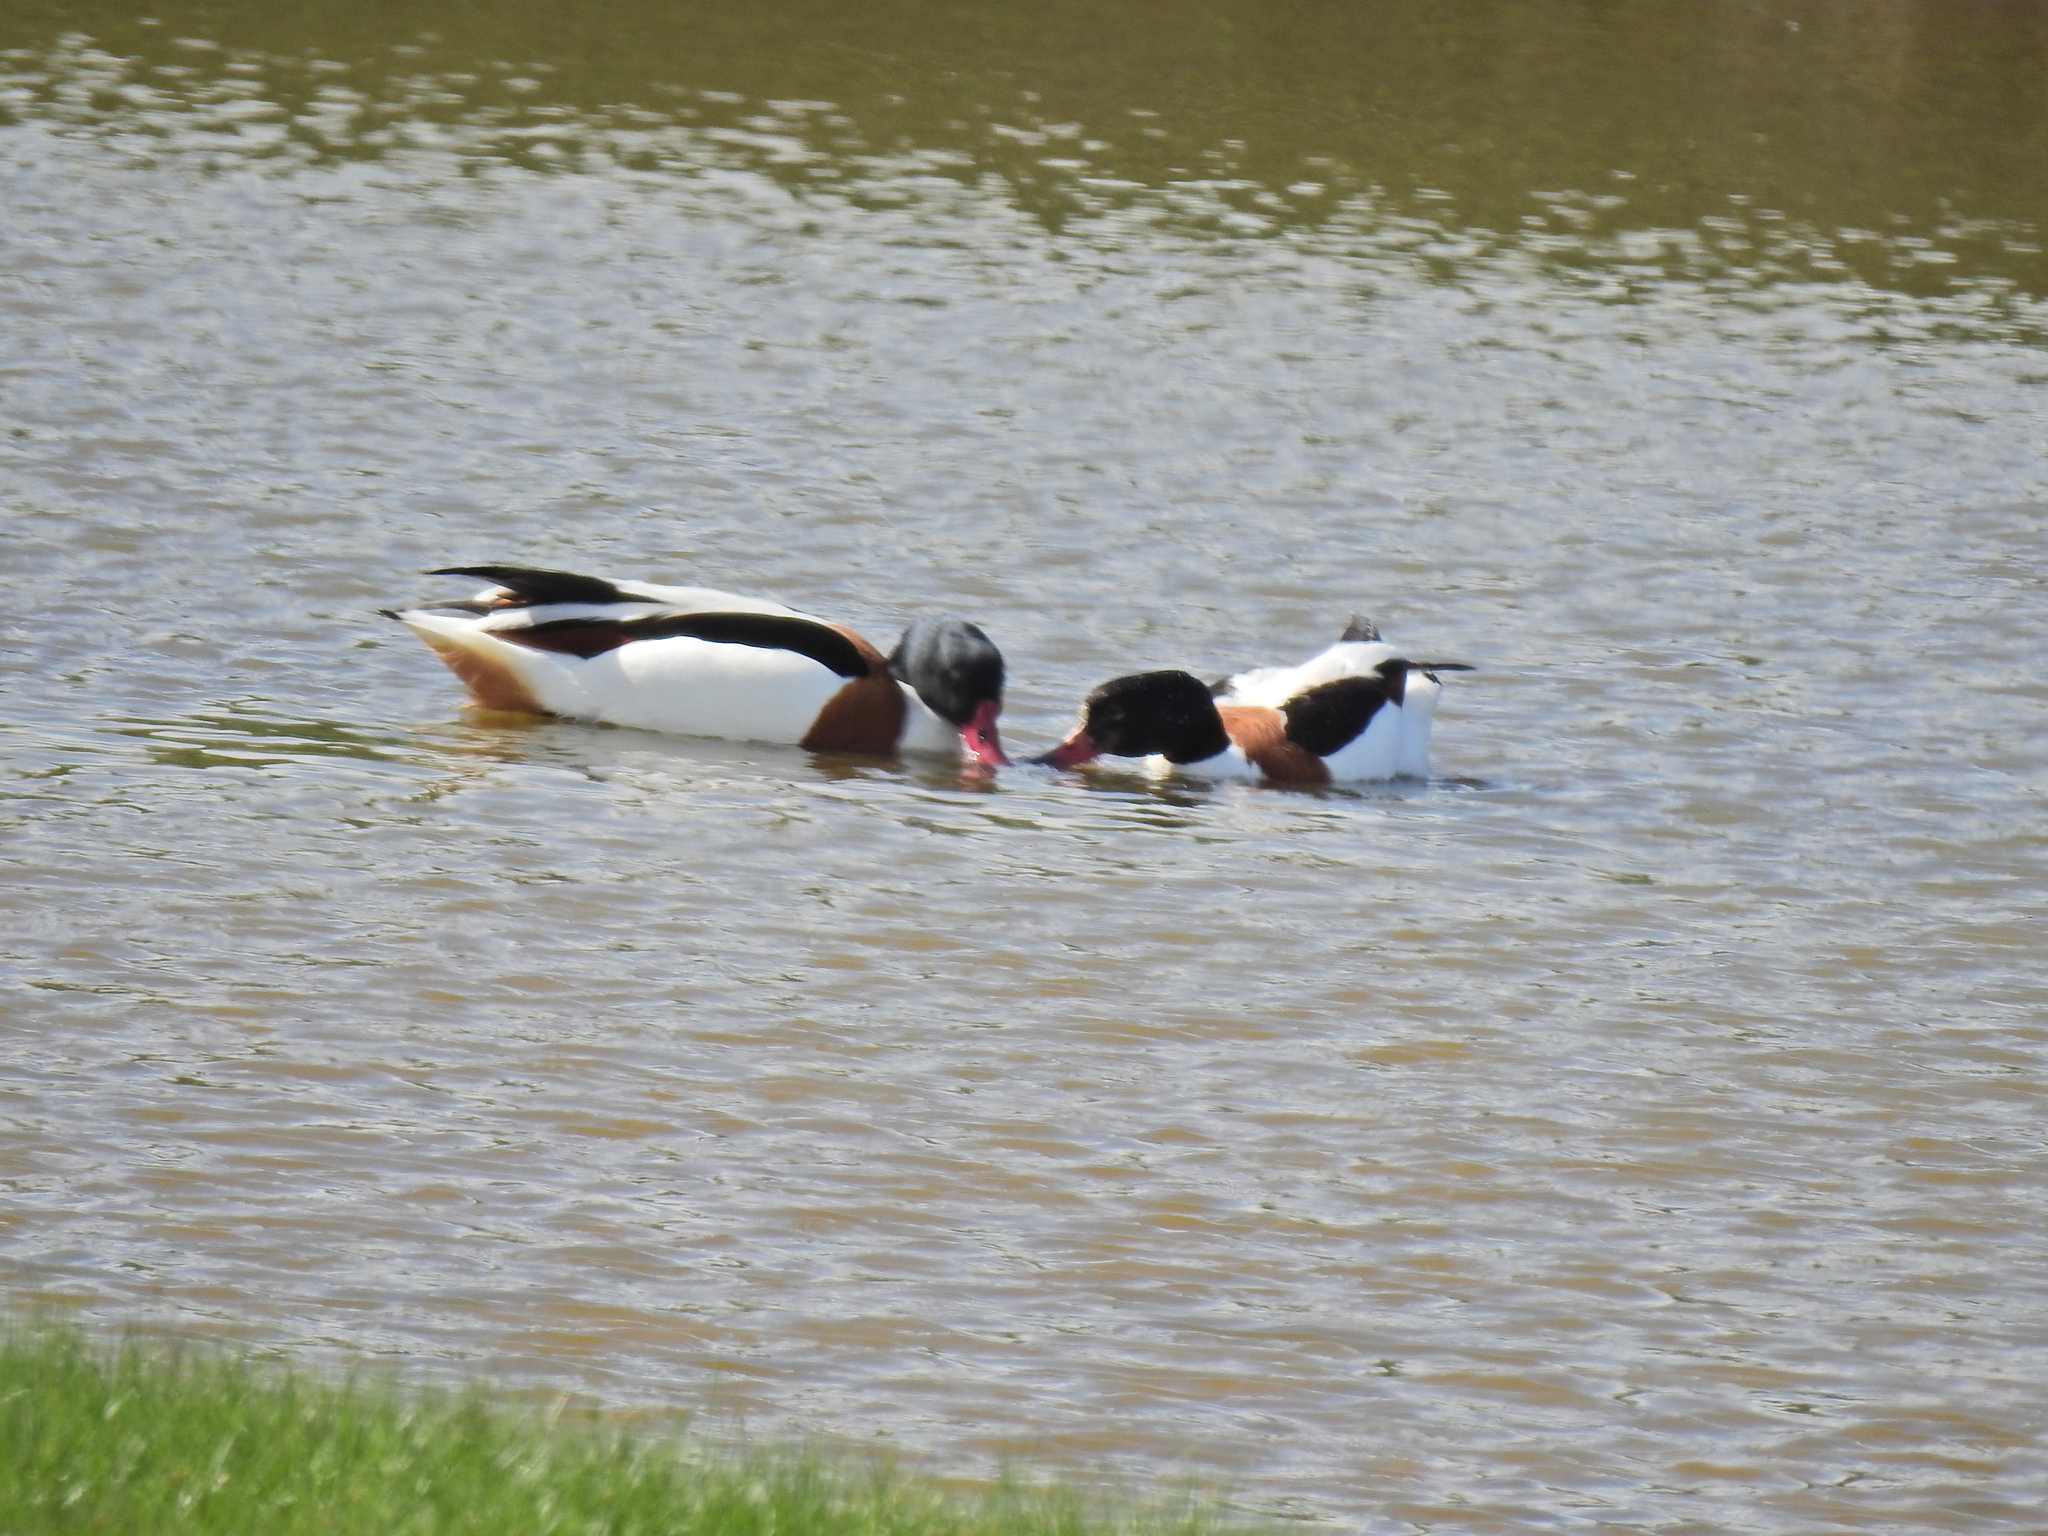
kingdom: Animalia
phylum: Chordata
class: Aves
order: Anseriformes
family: Anatidae
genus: Tadorna
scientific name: Tadorna tadorna
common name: Common shelduck
